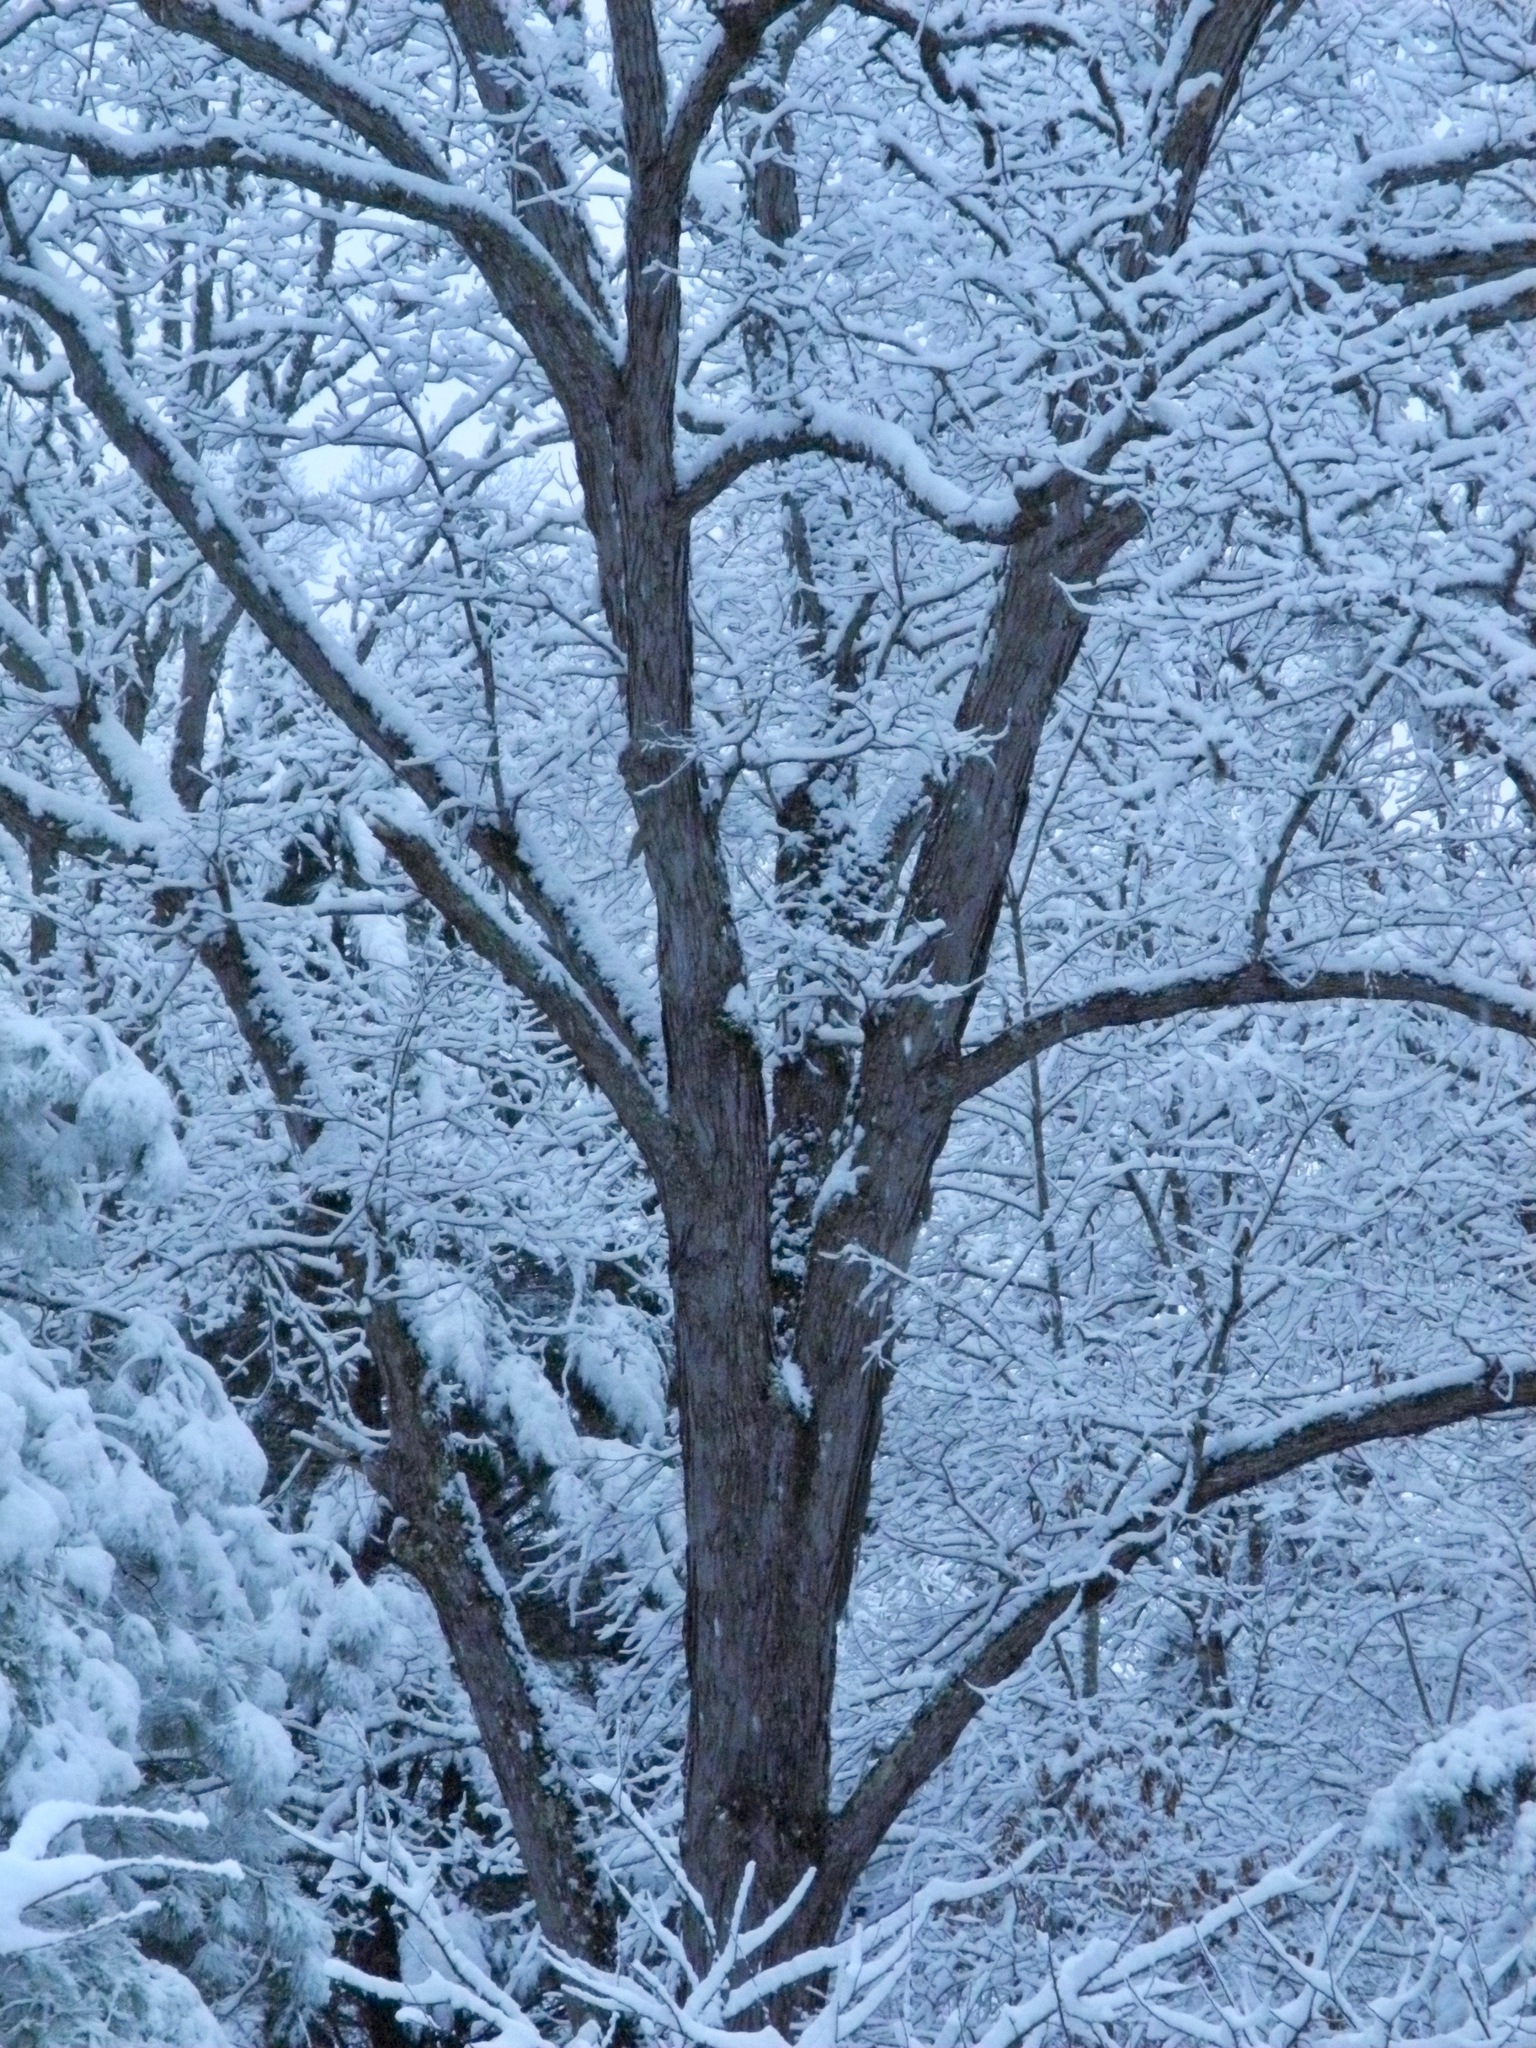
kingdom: Plantae
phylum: Tracheophyta
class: Magnoliopsida
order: Fagales
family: Fagaceae
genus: Quercus
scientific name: Quercus alba
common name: White oak
